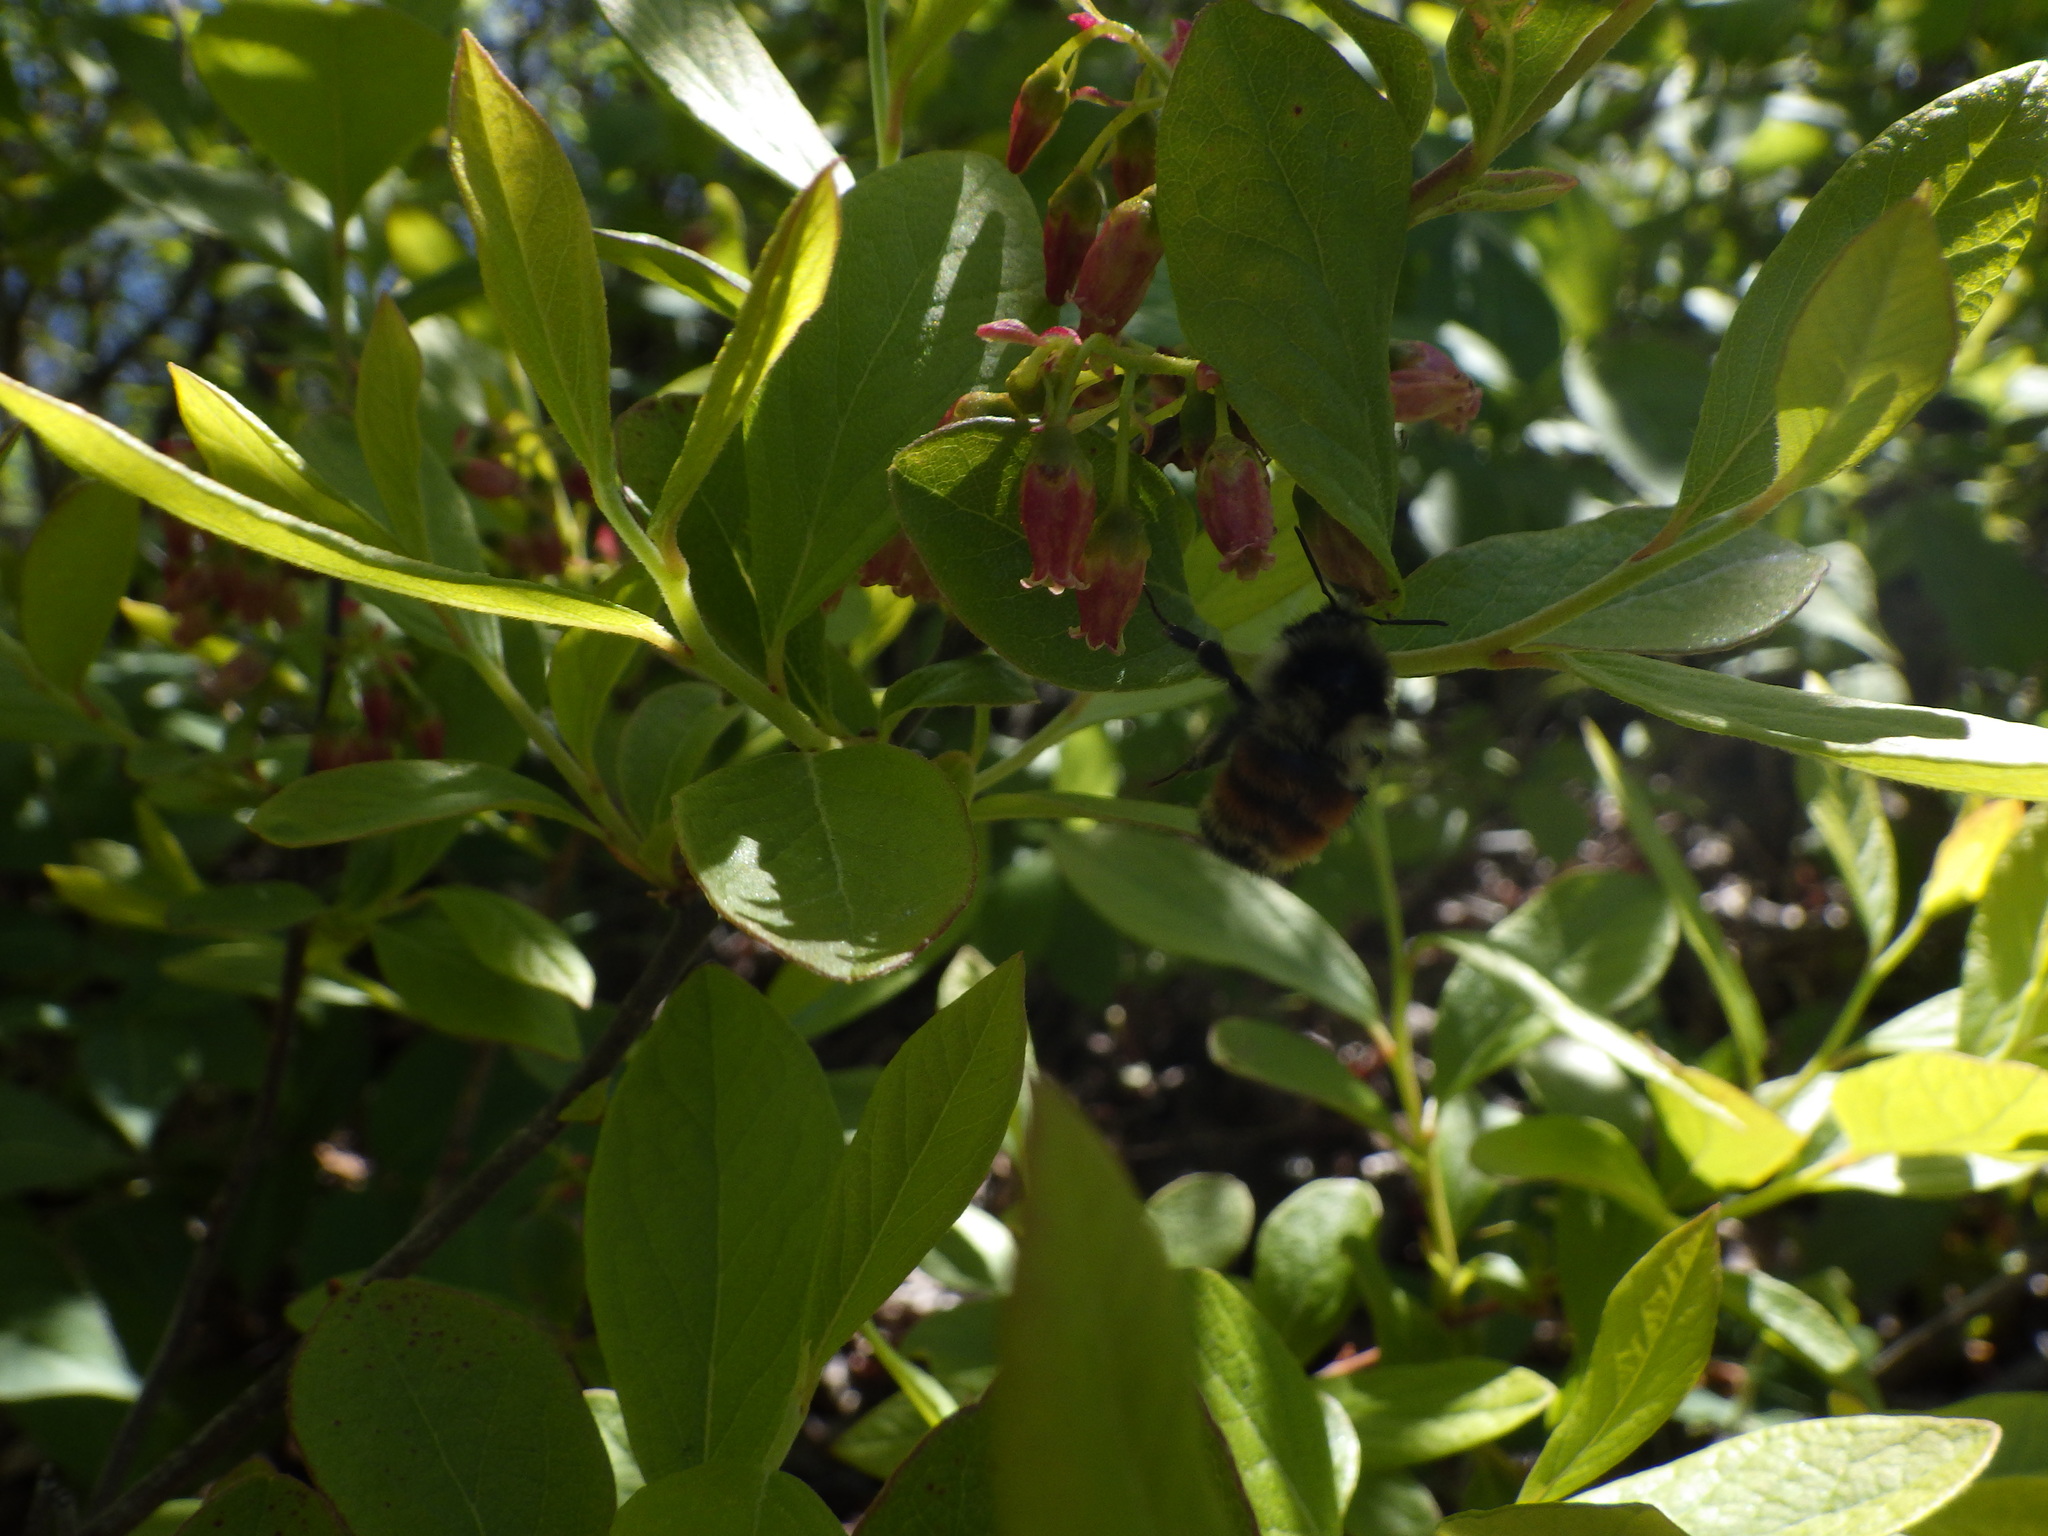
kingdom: Plantae
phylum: Tracheophyta
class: Magnoliopsida
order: Ericales
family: Ericaceae
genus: Gaylussacia
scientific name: Gaylussacia baccata
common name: Black huckleberry
